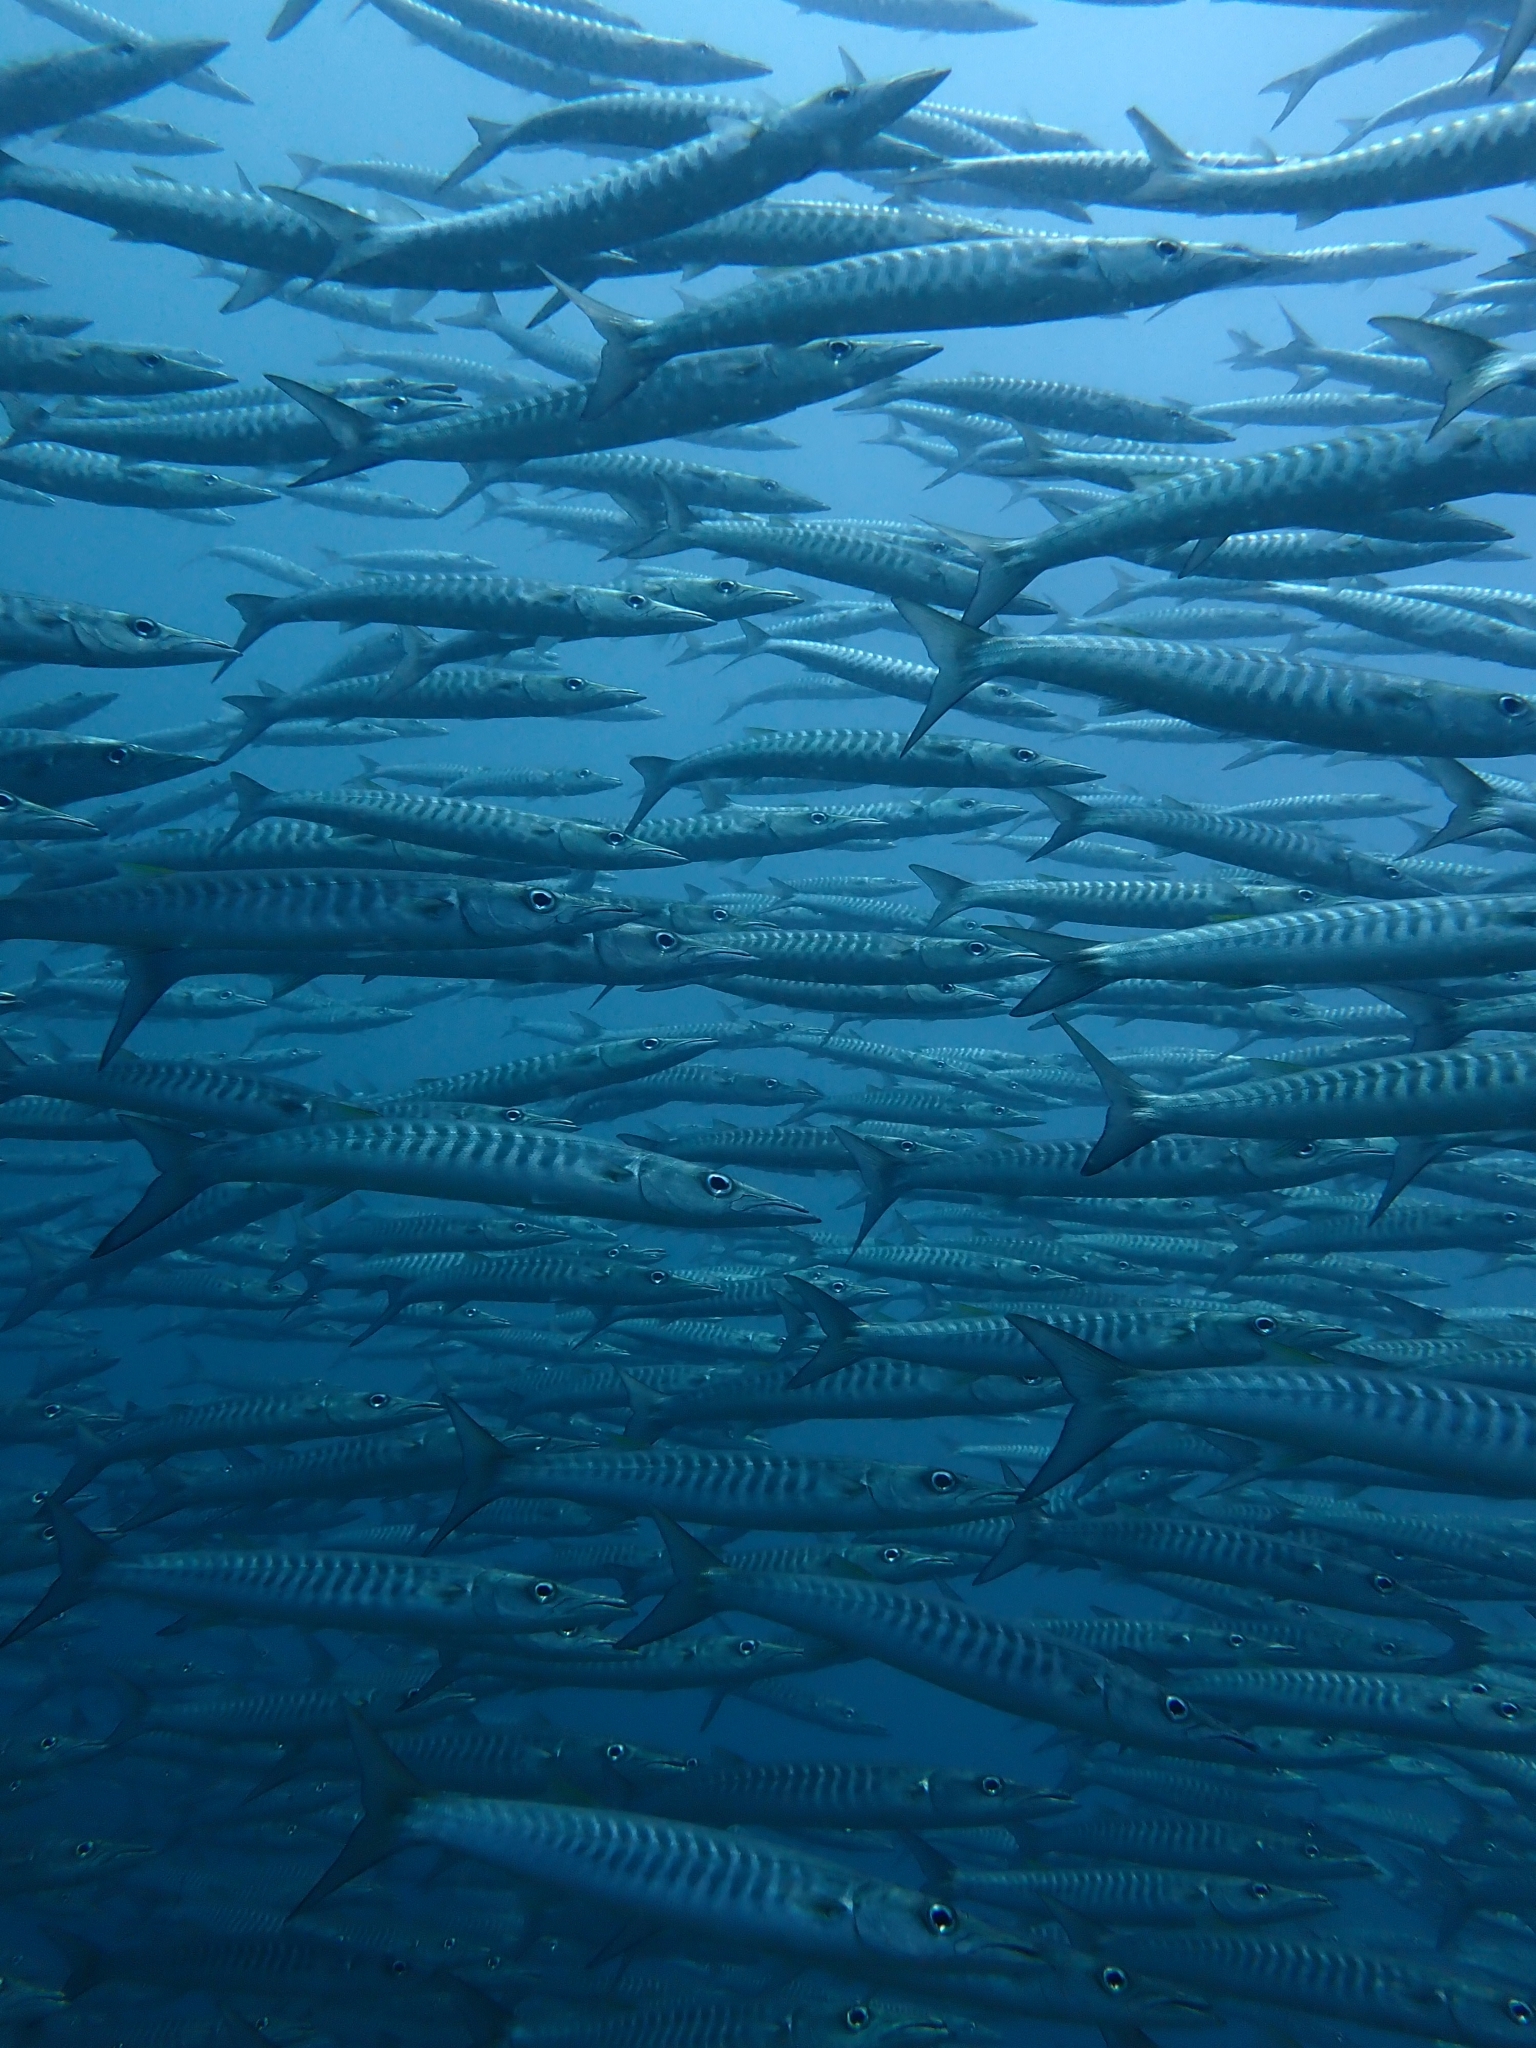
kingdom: Animalia
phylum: Chordata
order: Perciformes
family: Sphyraenidae
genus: Sphyraena
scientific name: Sphyraena qenie
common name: Blackfin barracuda
